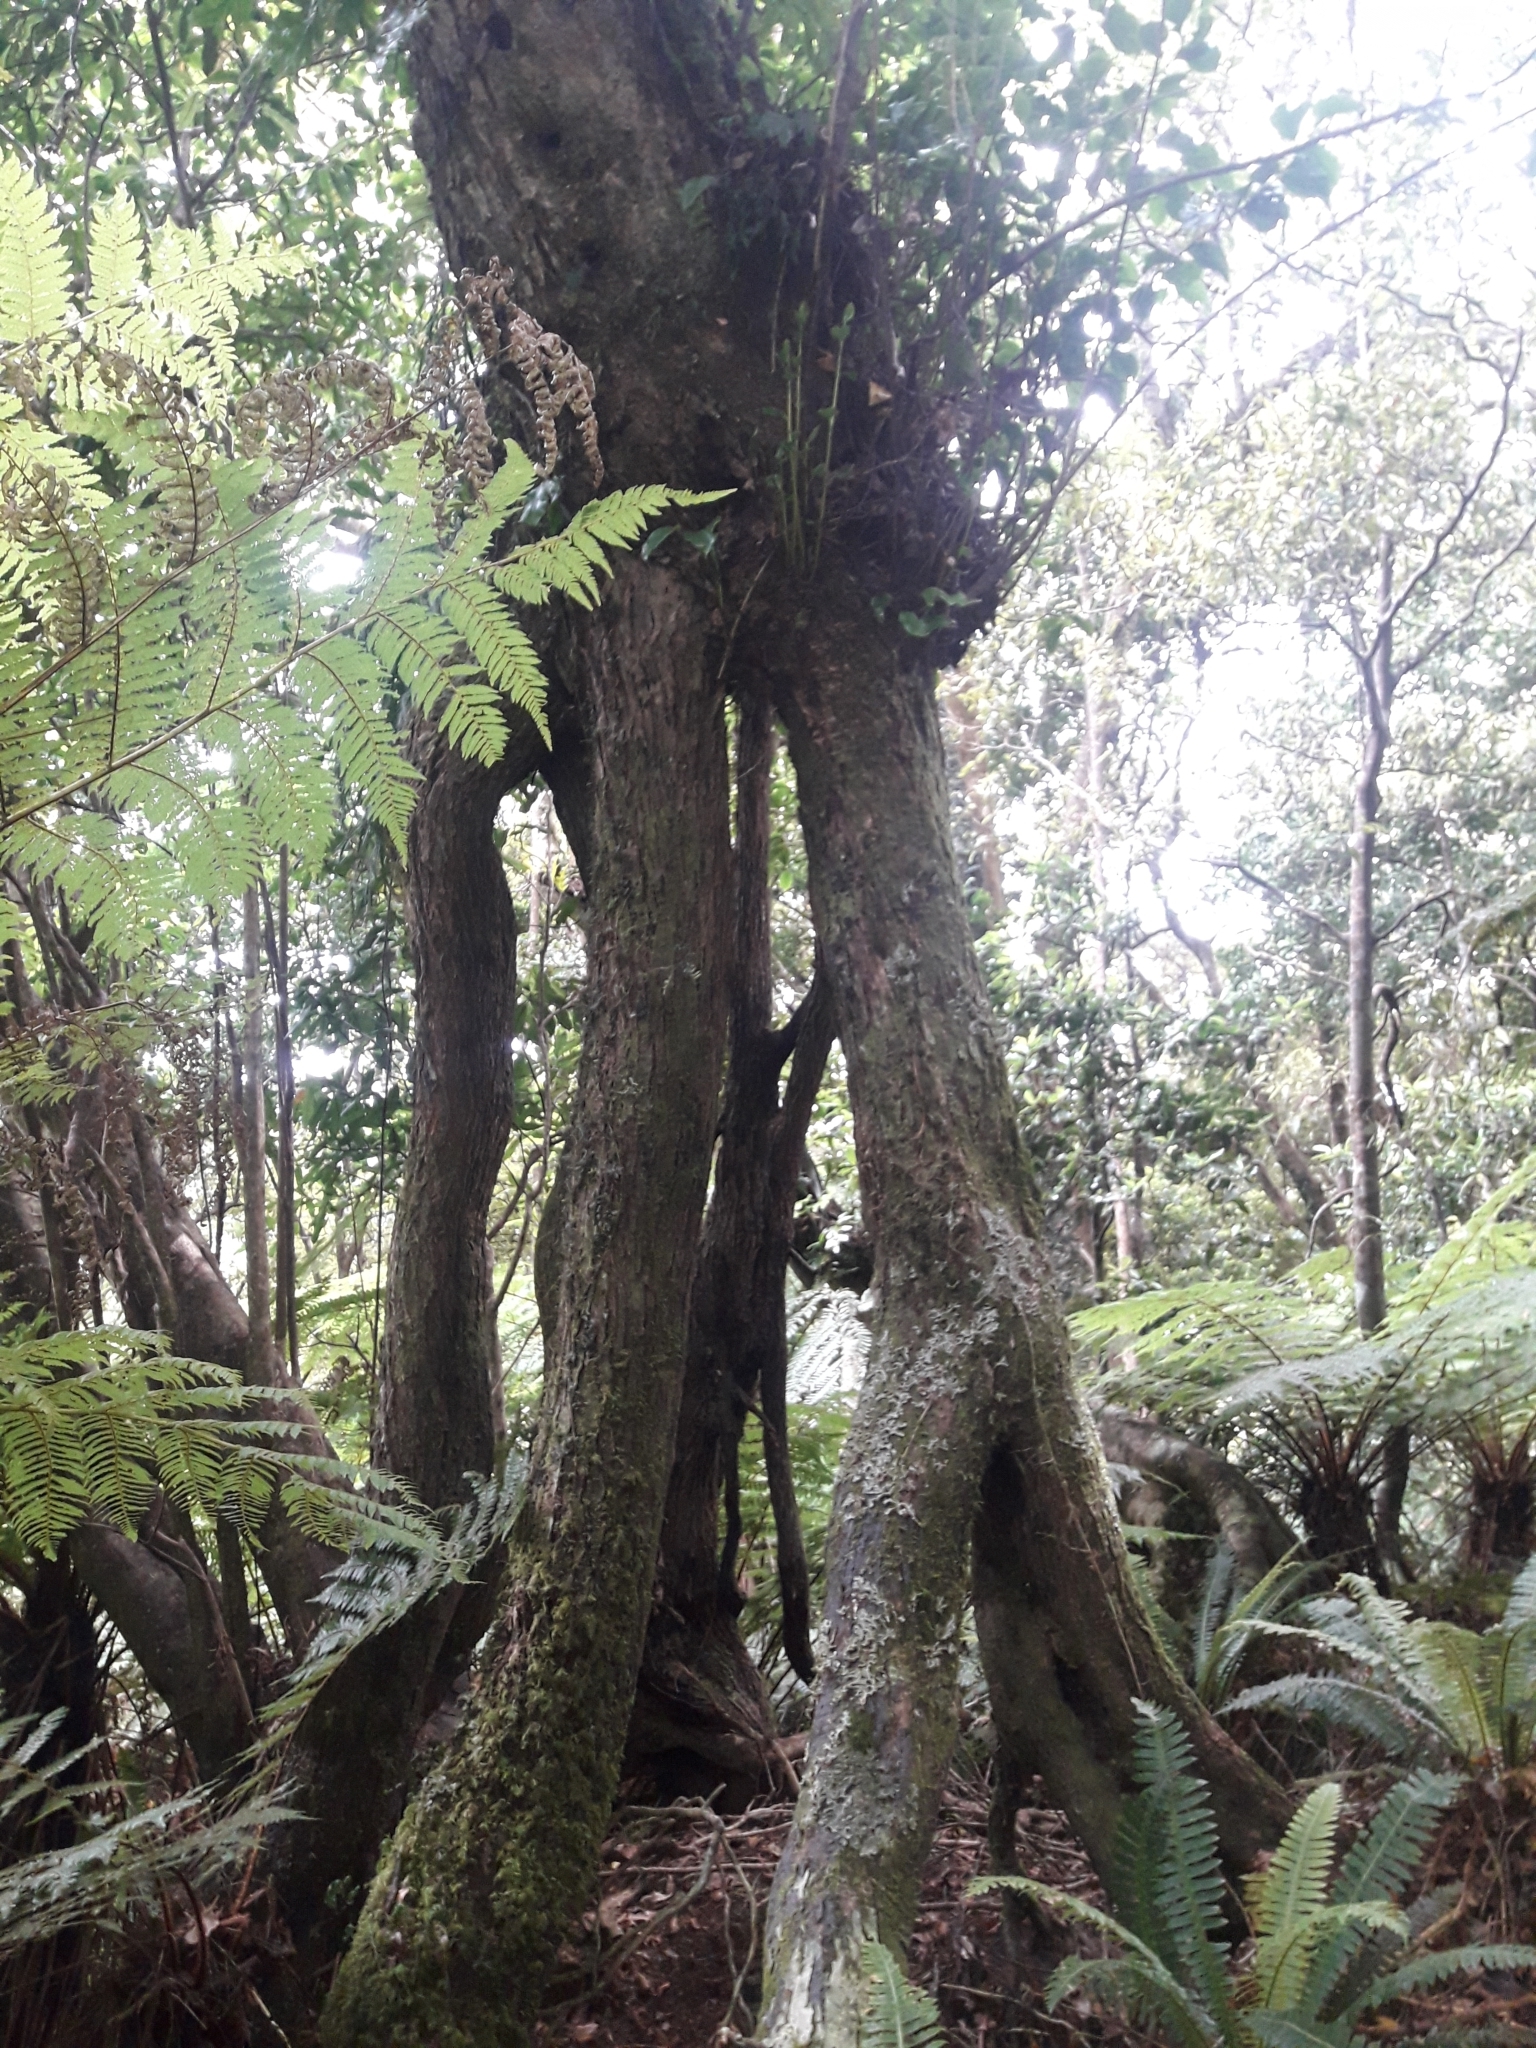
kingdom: Plantae
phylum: Tracheophyta
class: Magnoliopsida
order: Apiales
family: Griseliniaceae
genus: Griselinia
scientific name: Griselinia littoralis
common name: New zealand broadleaf
